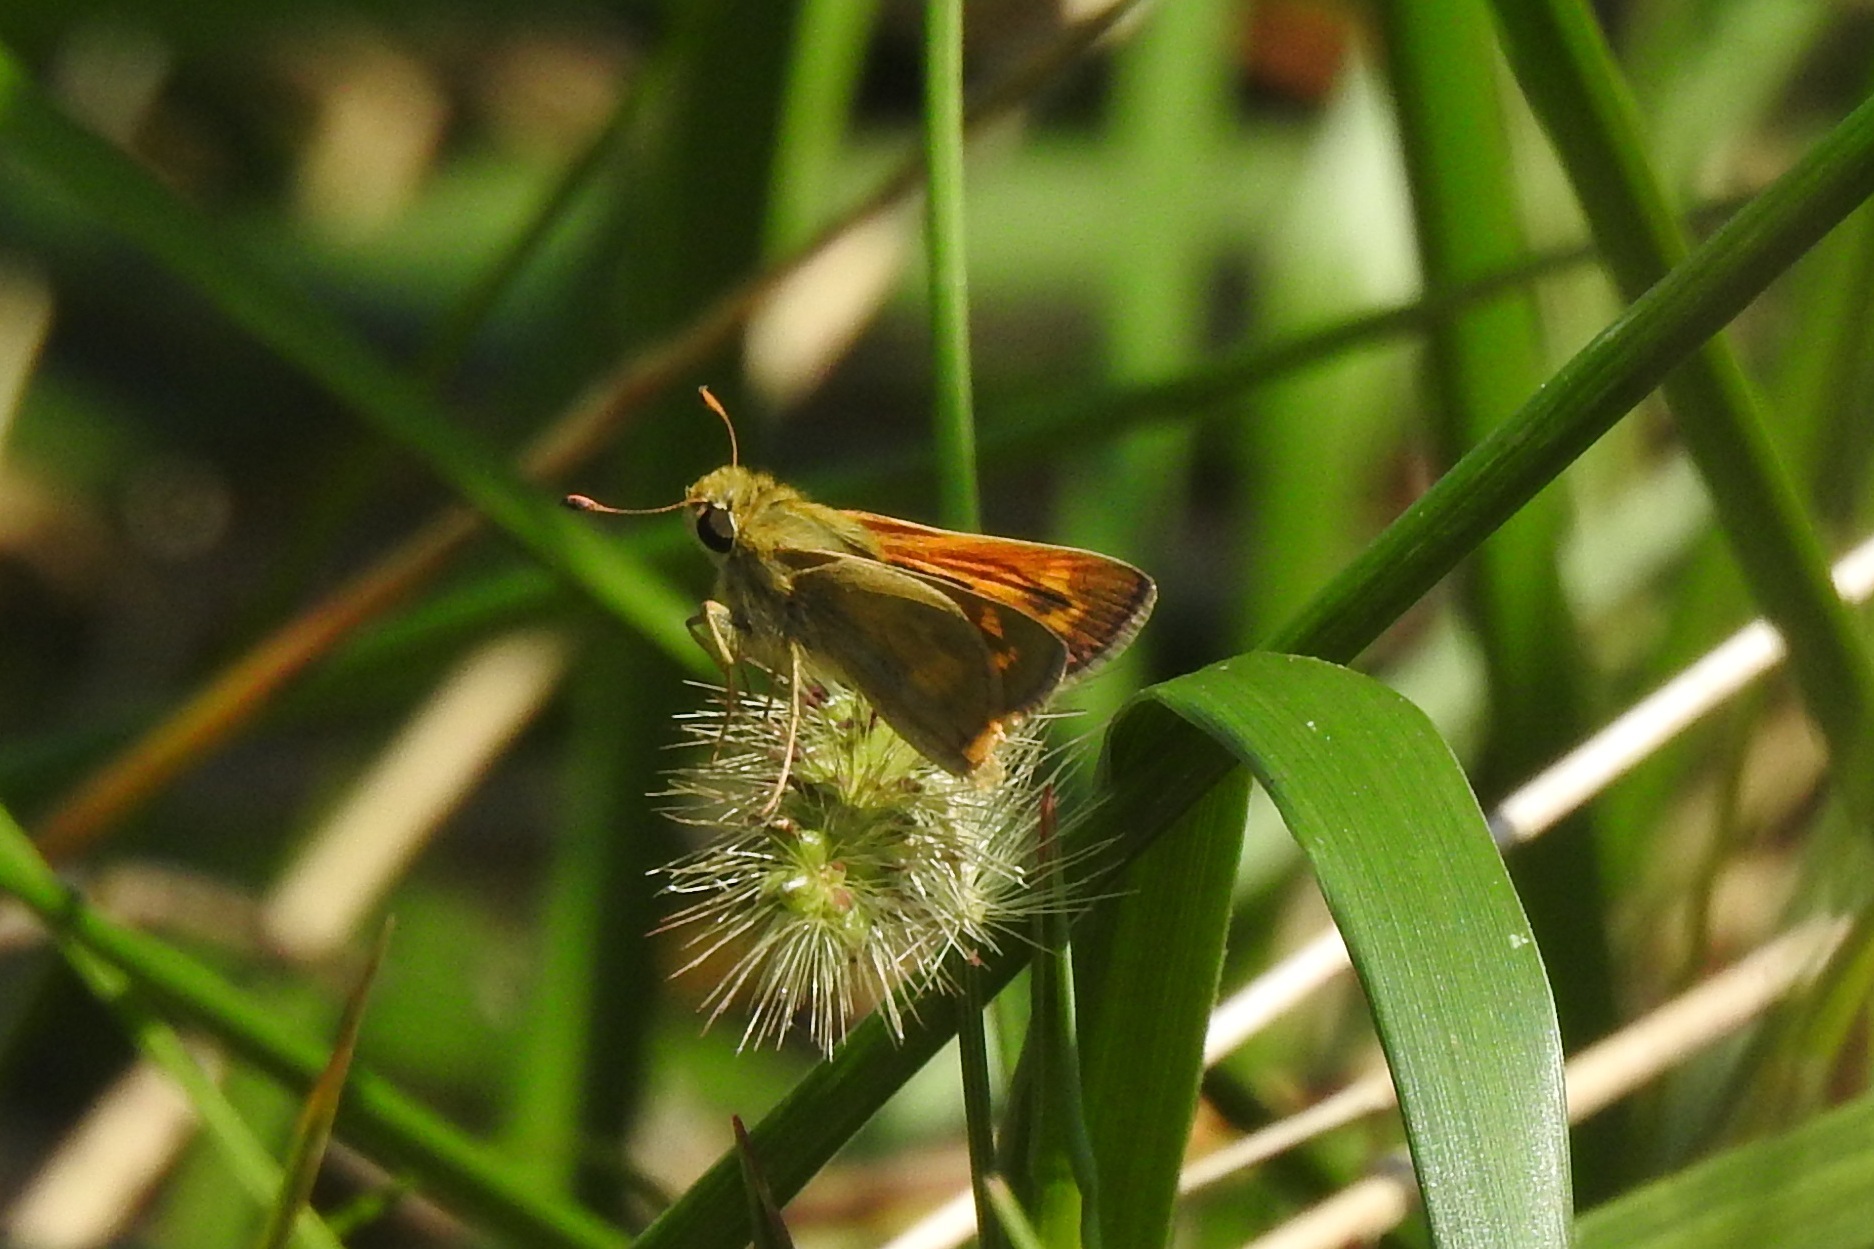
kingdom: Animalia
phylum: Arthropoda
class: Insecta
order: Lepidoptera
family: Hesperiidae
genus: Atalopedes
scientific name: Atalopedes
